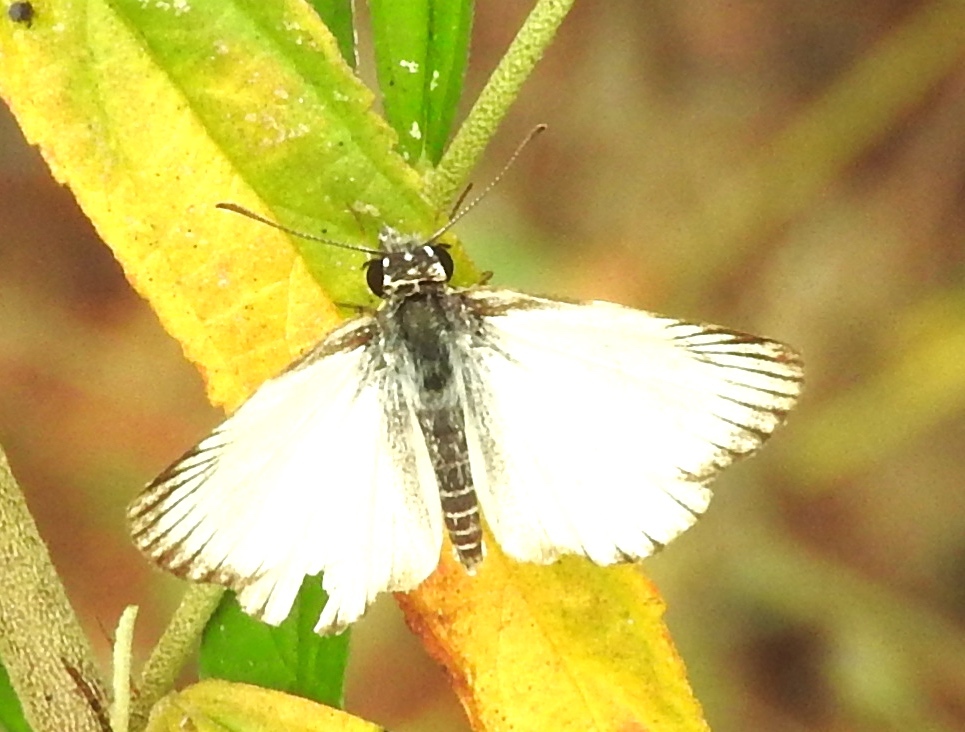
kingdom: Animalia
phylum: Arthropoda
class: Insecta
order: Lepidoptera
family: Hesperiidae
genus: Heliopetes
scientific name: Heliopetes arsalte
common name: Veined white-skipper
